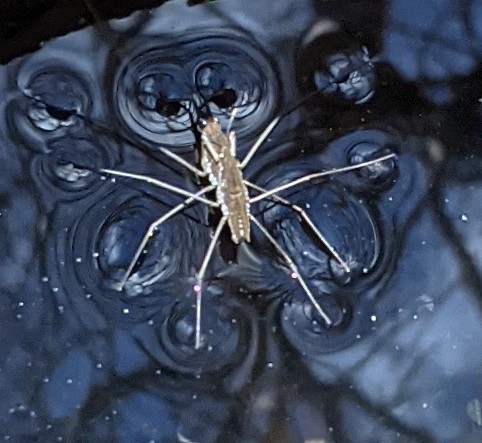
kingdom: Animalia
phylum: Arthropoda
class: Insecta
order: Hemiptera
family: Gerridae
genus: Aquarius
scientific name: Aquarius remigis
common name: Common water strider
